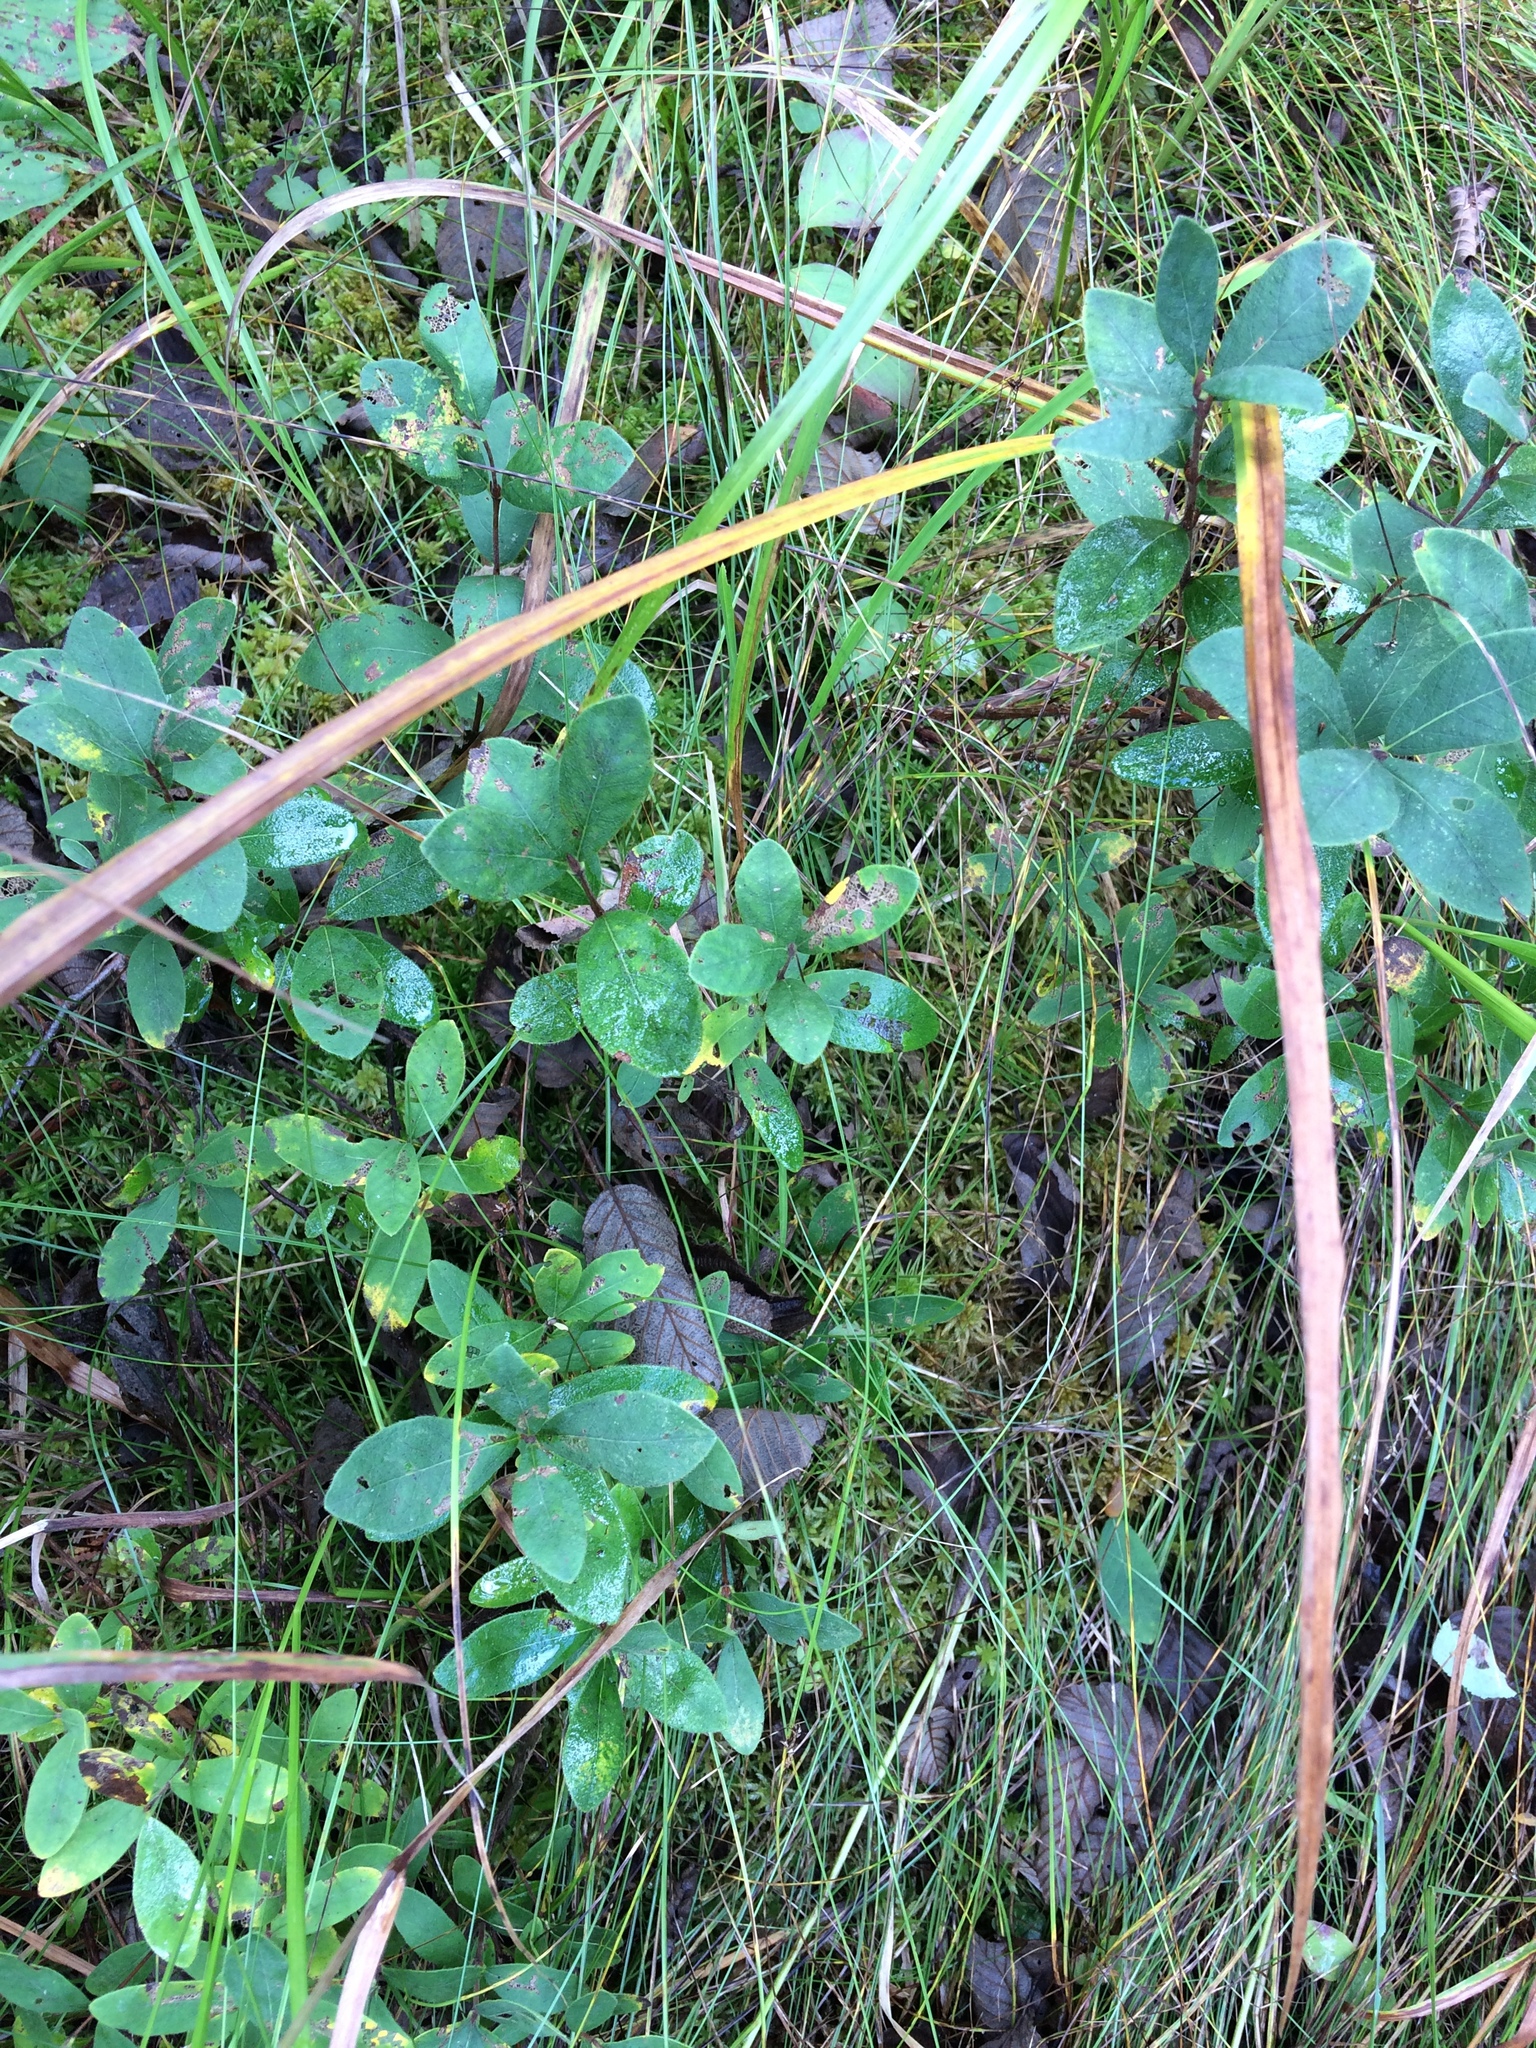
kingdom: Plantae
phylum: Tracheophyta
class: Magnoliopsida
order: Dipsacales
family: Caprifoliaceae
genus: Lonicera
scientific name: Lonicera villosa
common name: Mountain fly-honeysuckle
